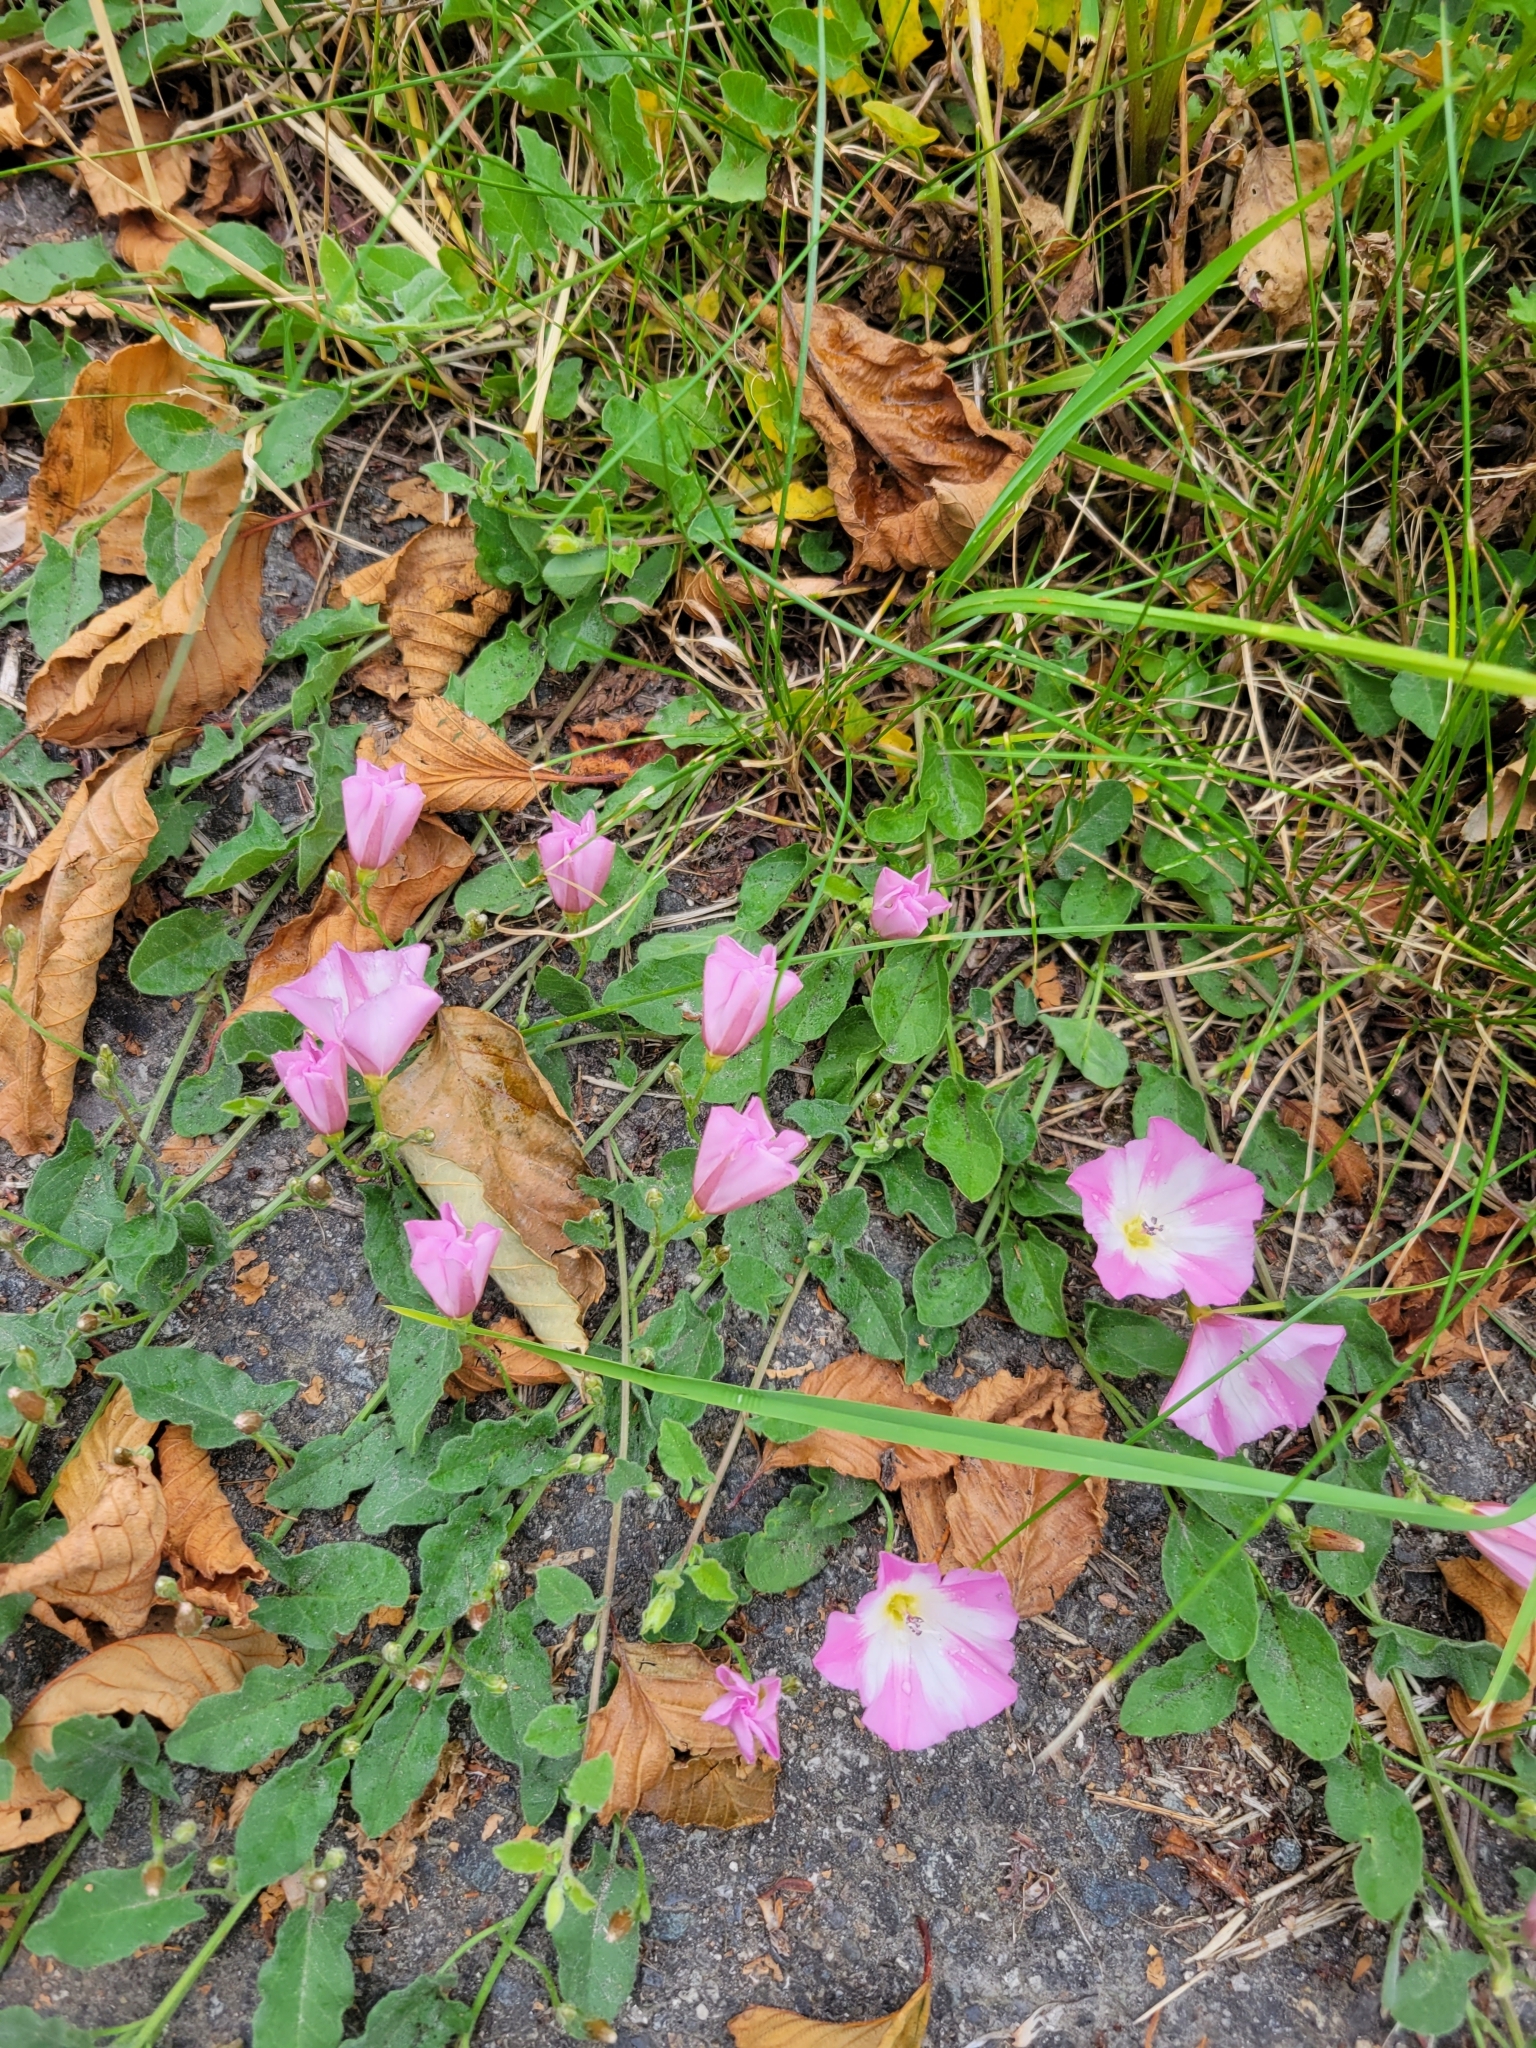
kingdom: Plantae
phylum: Tracheophyta
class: Magnoliopsida
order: Solanales
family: Convolvulaceae
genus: Convolvulus
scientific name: Convolvulus arvensis
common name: Field bindweed
